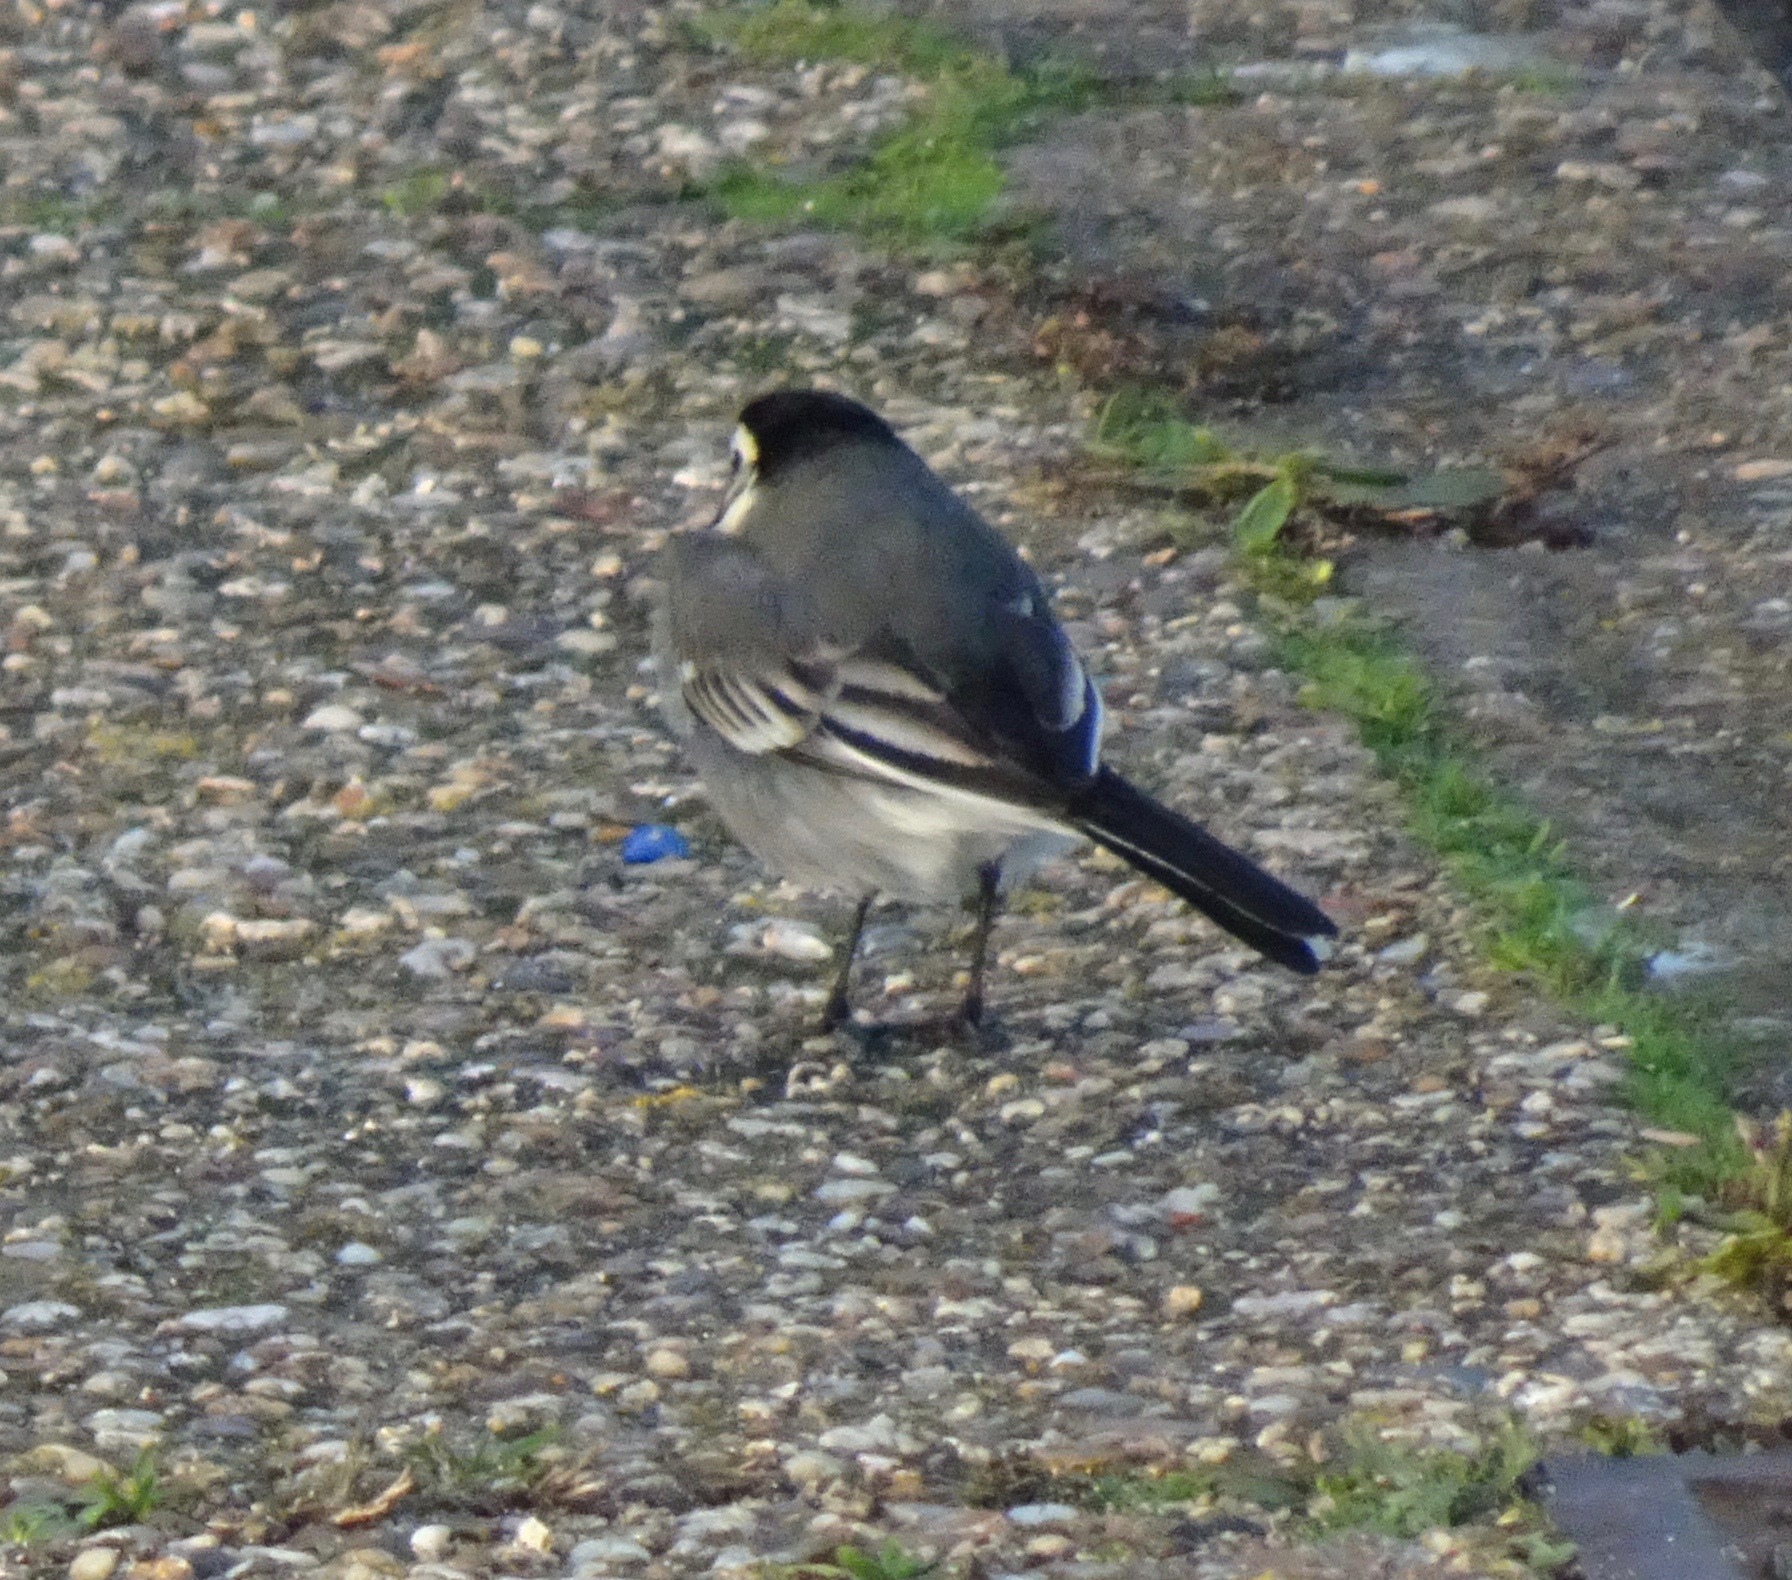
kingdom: Animalia
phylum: Chordata
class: Aves
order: Passeriformes
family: Motacillidae
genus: Motacilla
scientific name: Motacilla alba
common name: White wagtail
